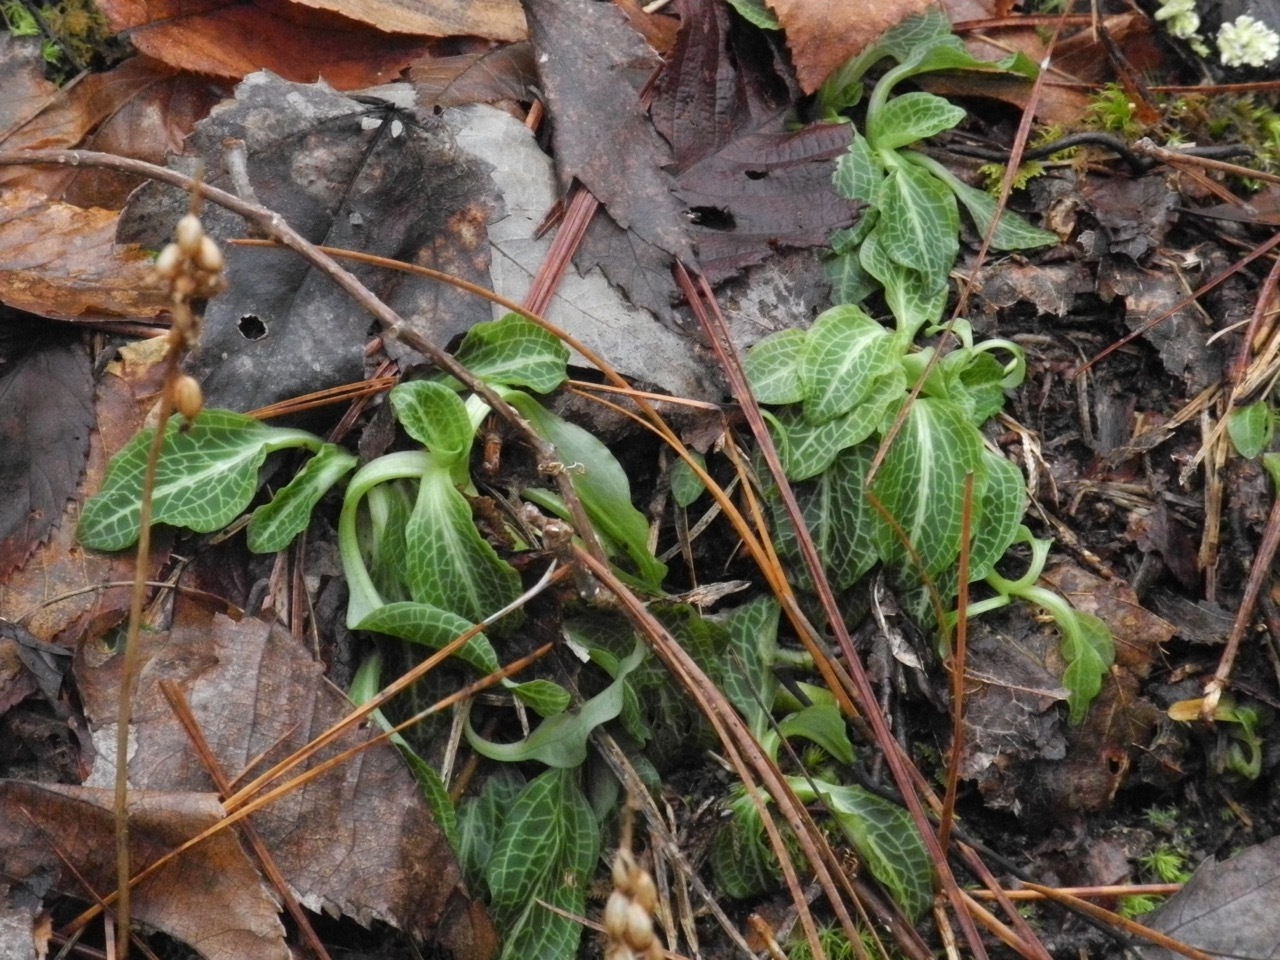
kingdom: Plantae
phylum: Tracheophyta
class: Liliopsida
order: Asparagales
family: Orchidaceae
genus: Goodyera
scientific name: Goodyera pubescens
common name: Downy rattlesnake-plantain
